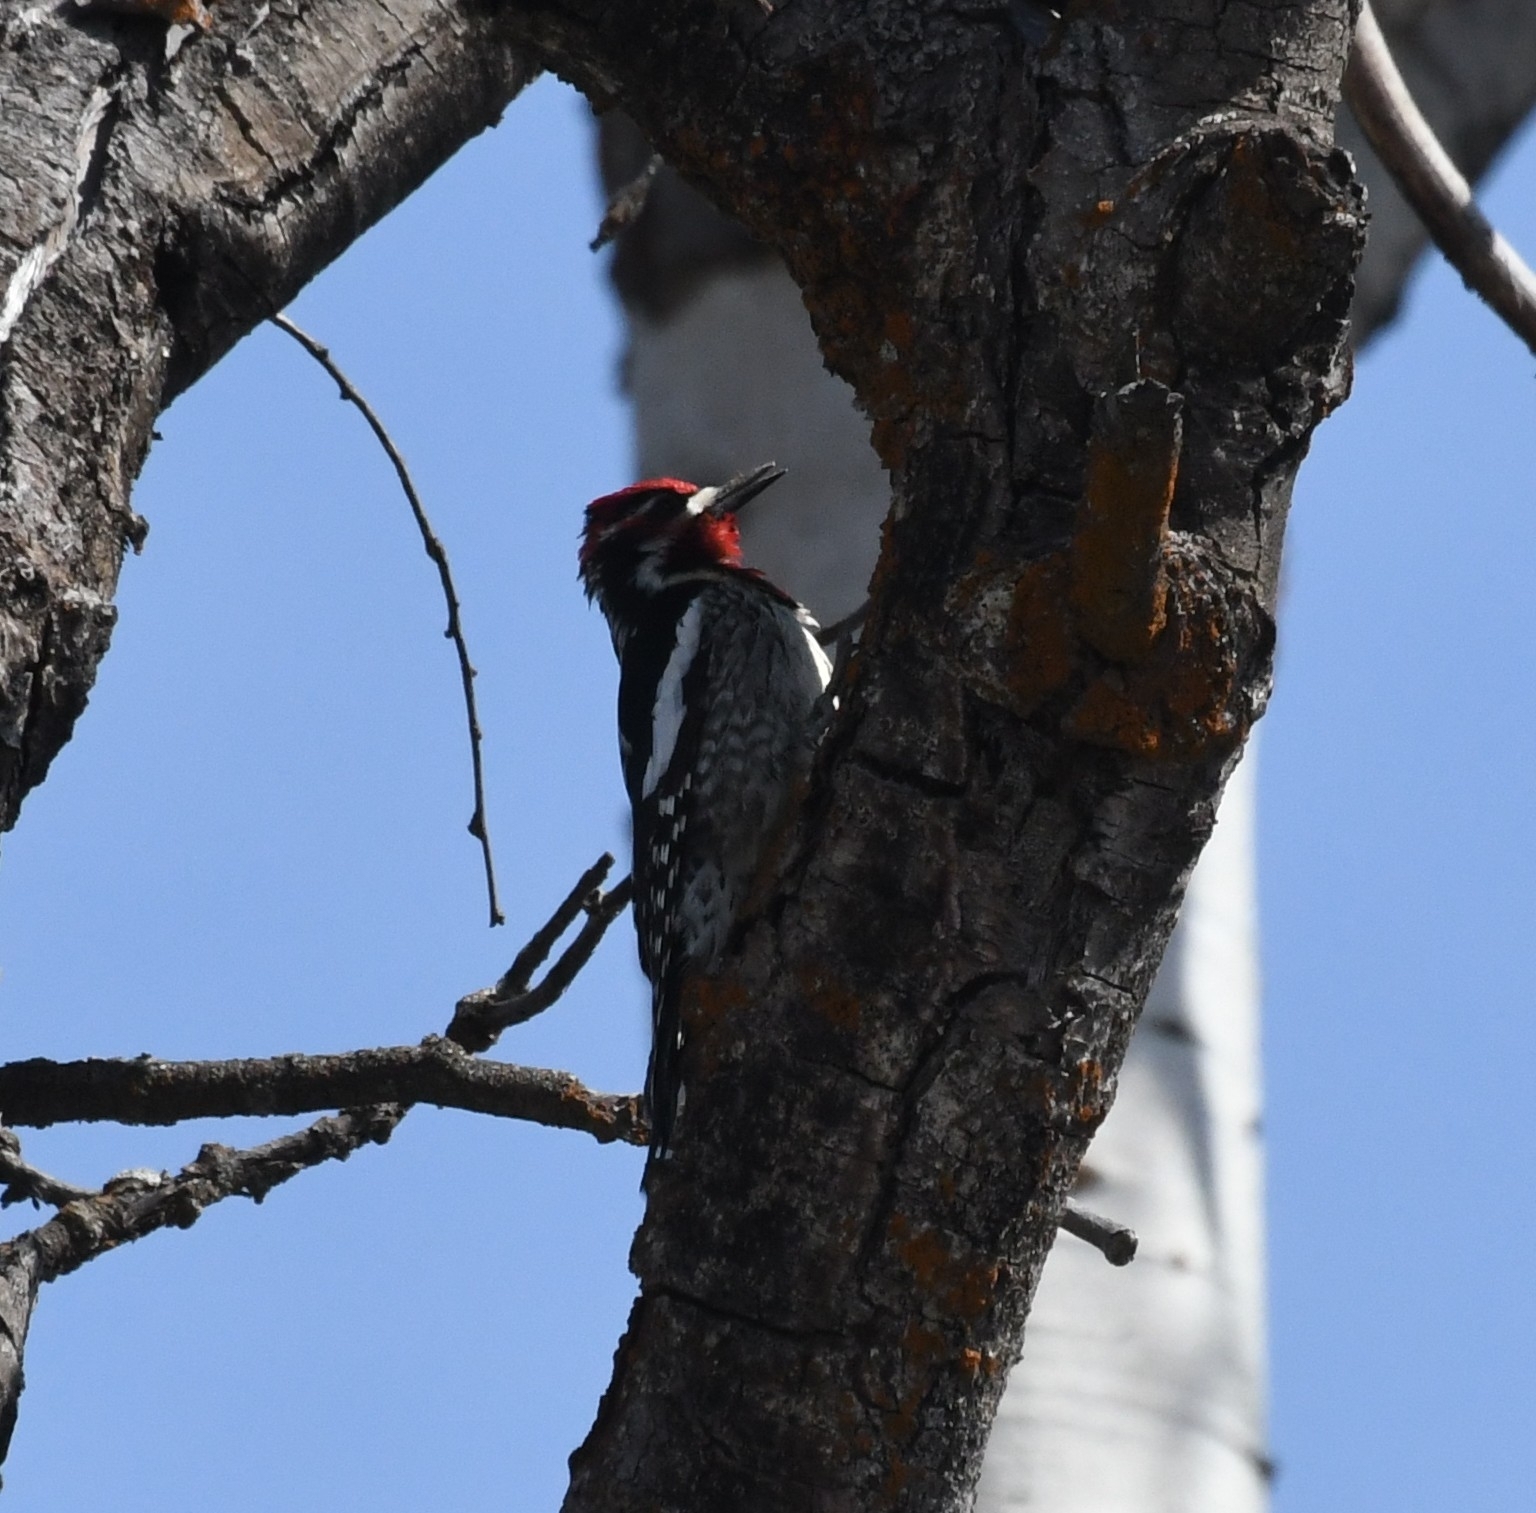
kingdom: Animalia
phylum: Chordata
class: Aves
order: Piciformes
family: Picidae
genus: Sphyrapicus
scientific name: Sphyrapicus nuchalis
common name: Red-naped sapsucker
